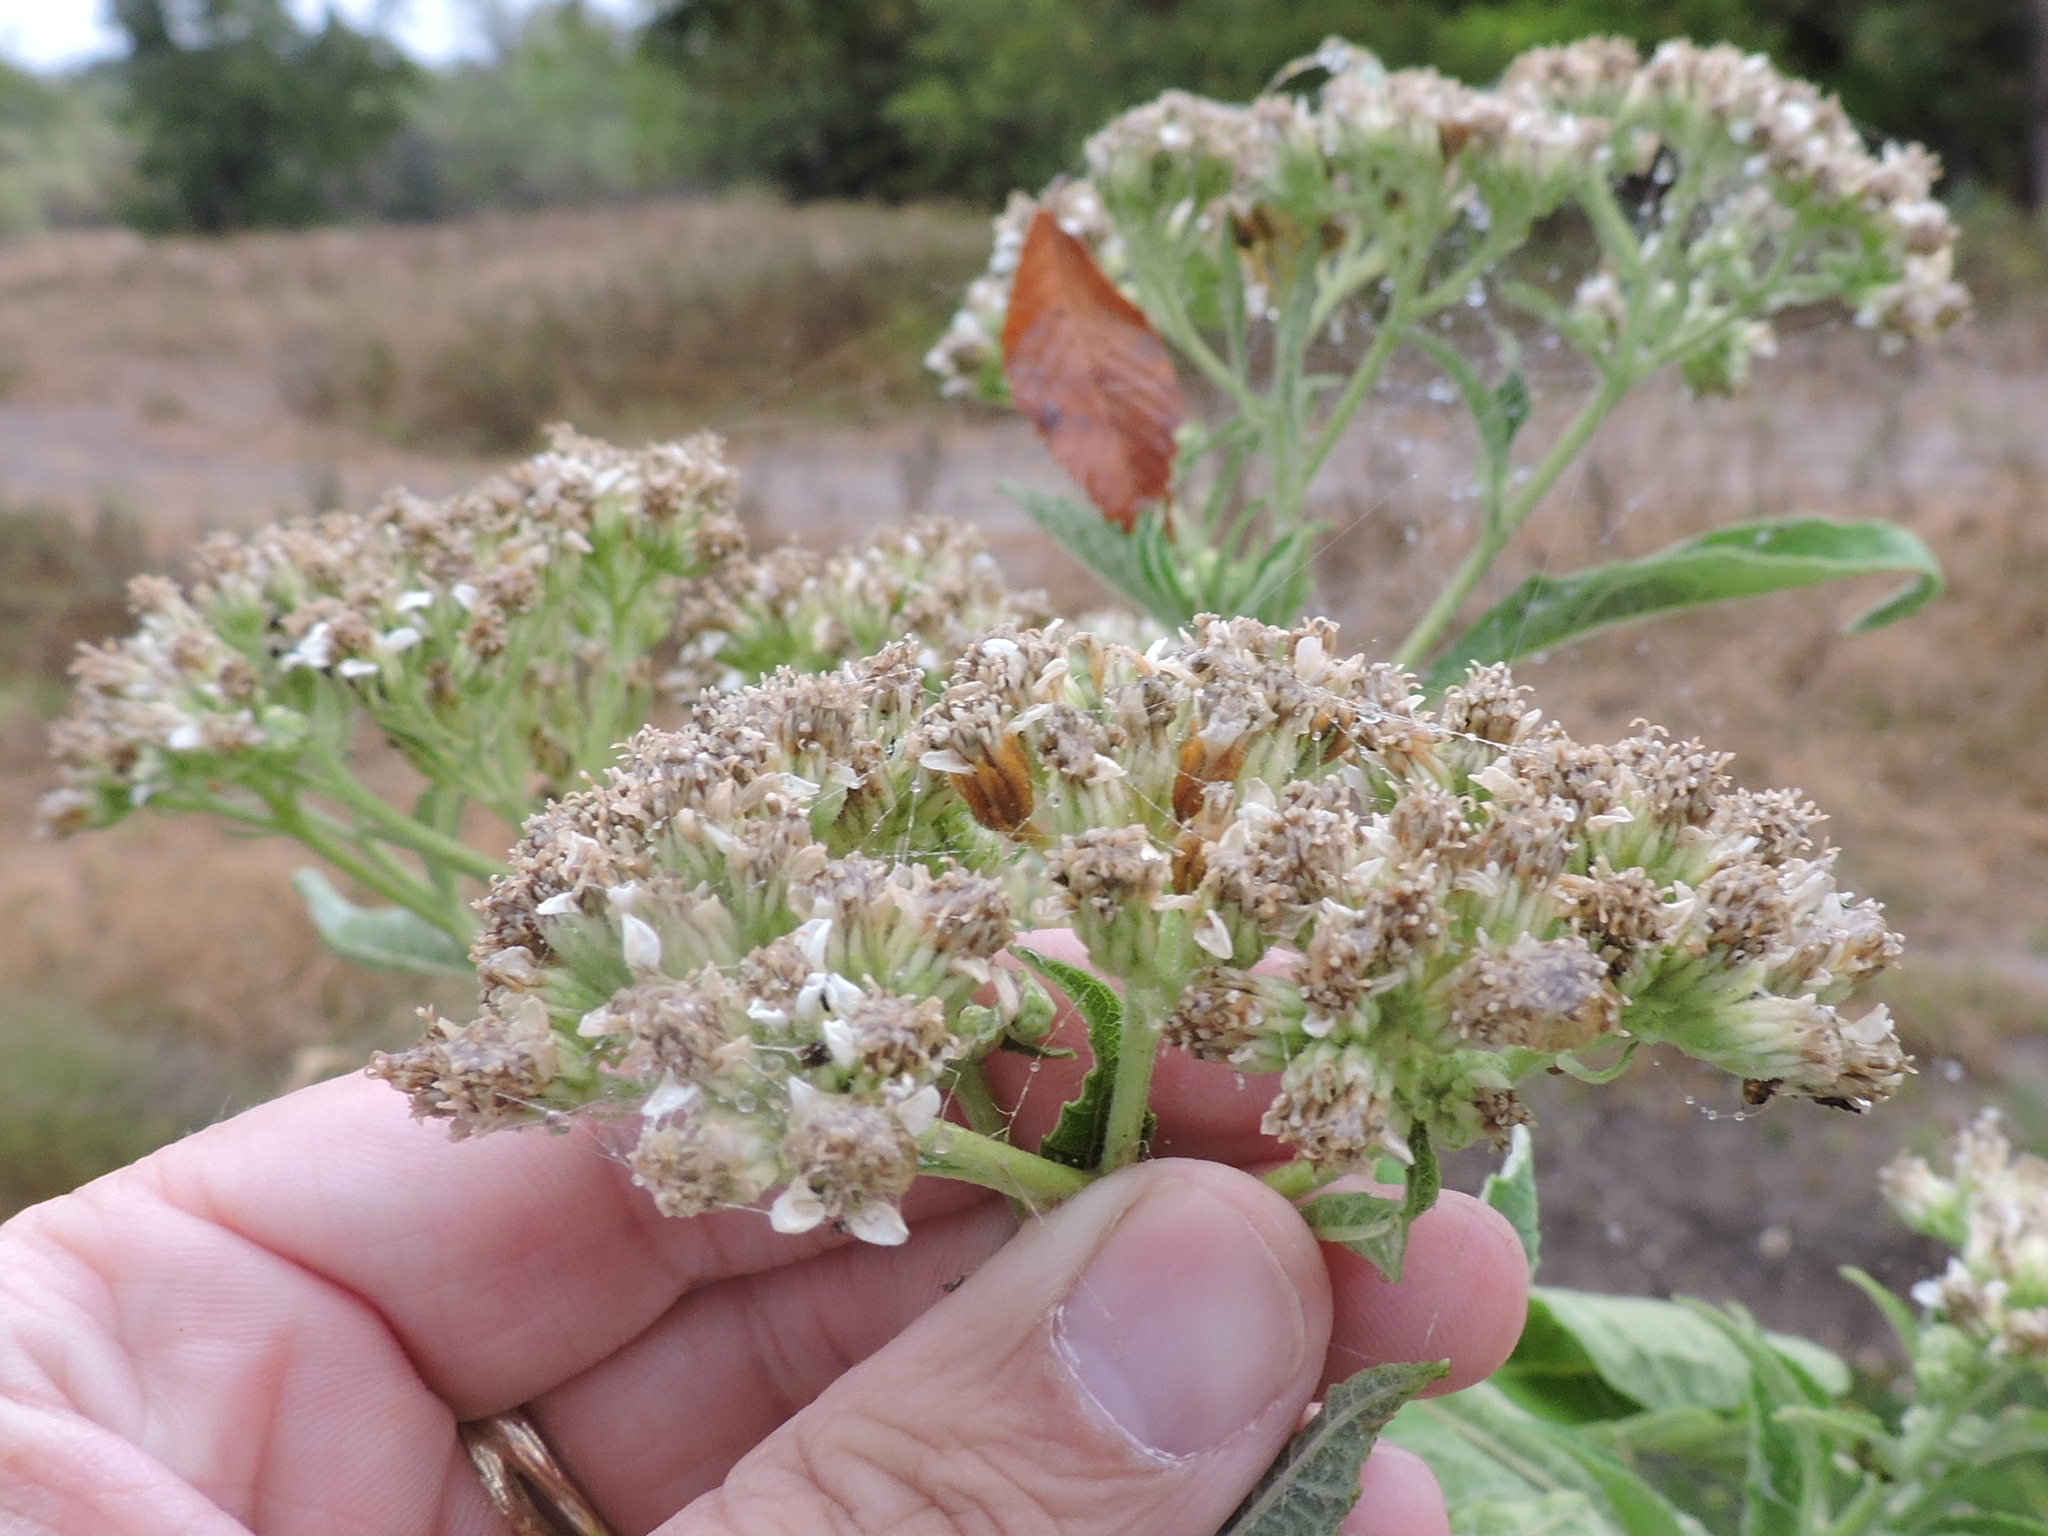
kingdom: Plantae
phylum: Tracheophyta
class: Magnoliopsida
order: Asterales
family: Asteraceae
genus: Verbesina
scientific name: Verbesina virginica
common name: Frostweed
